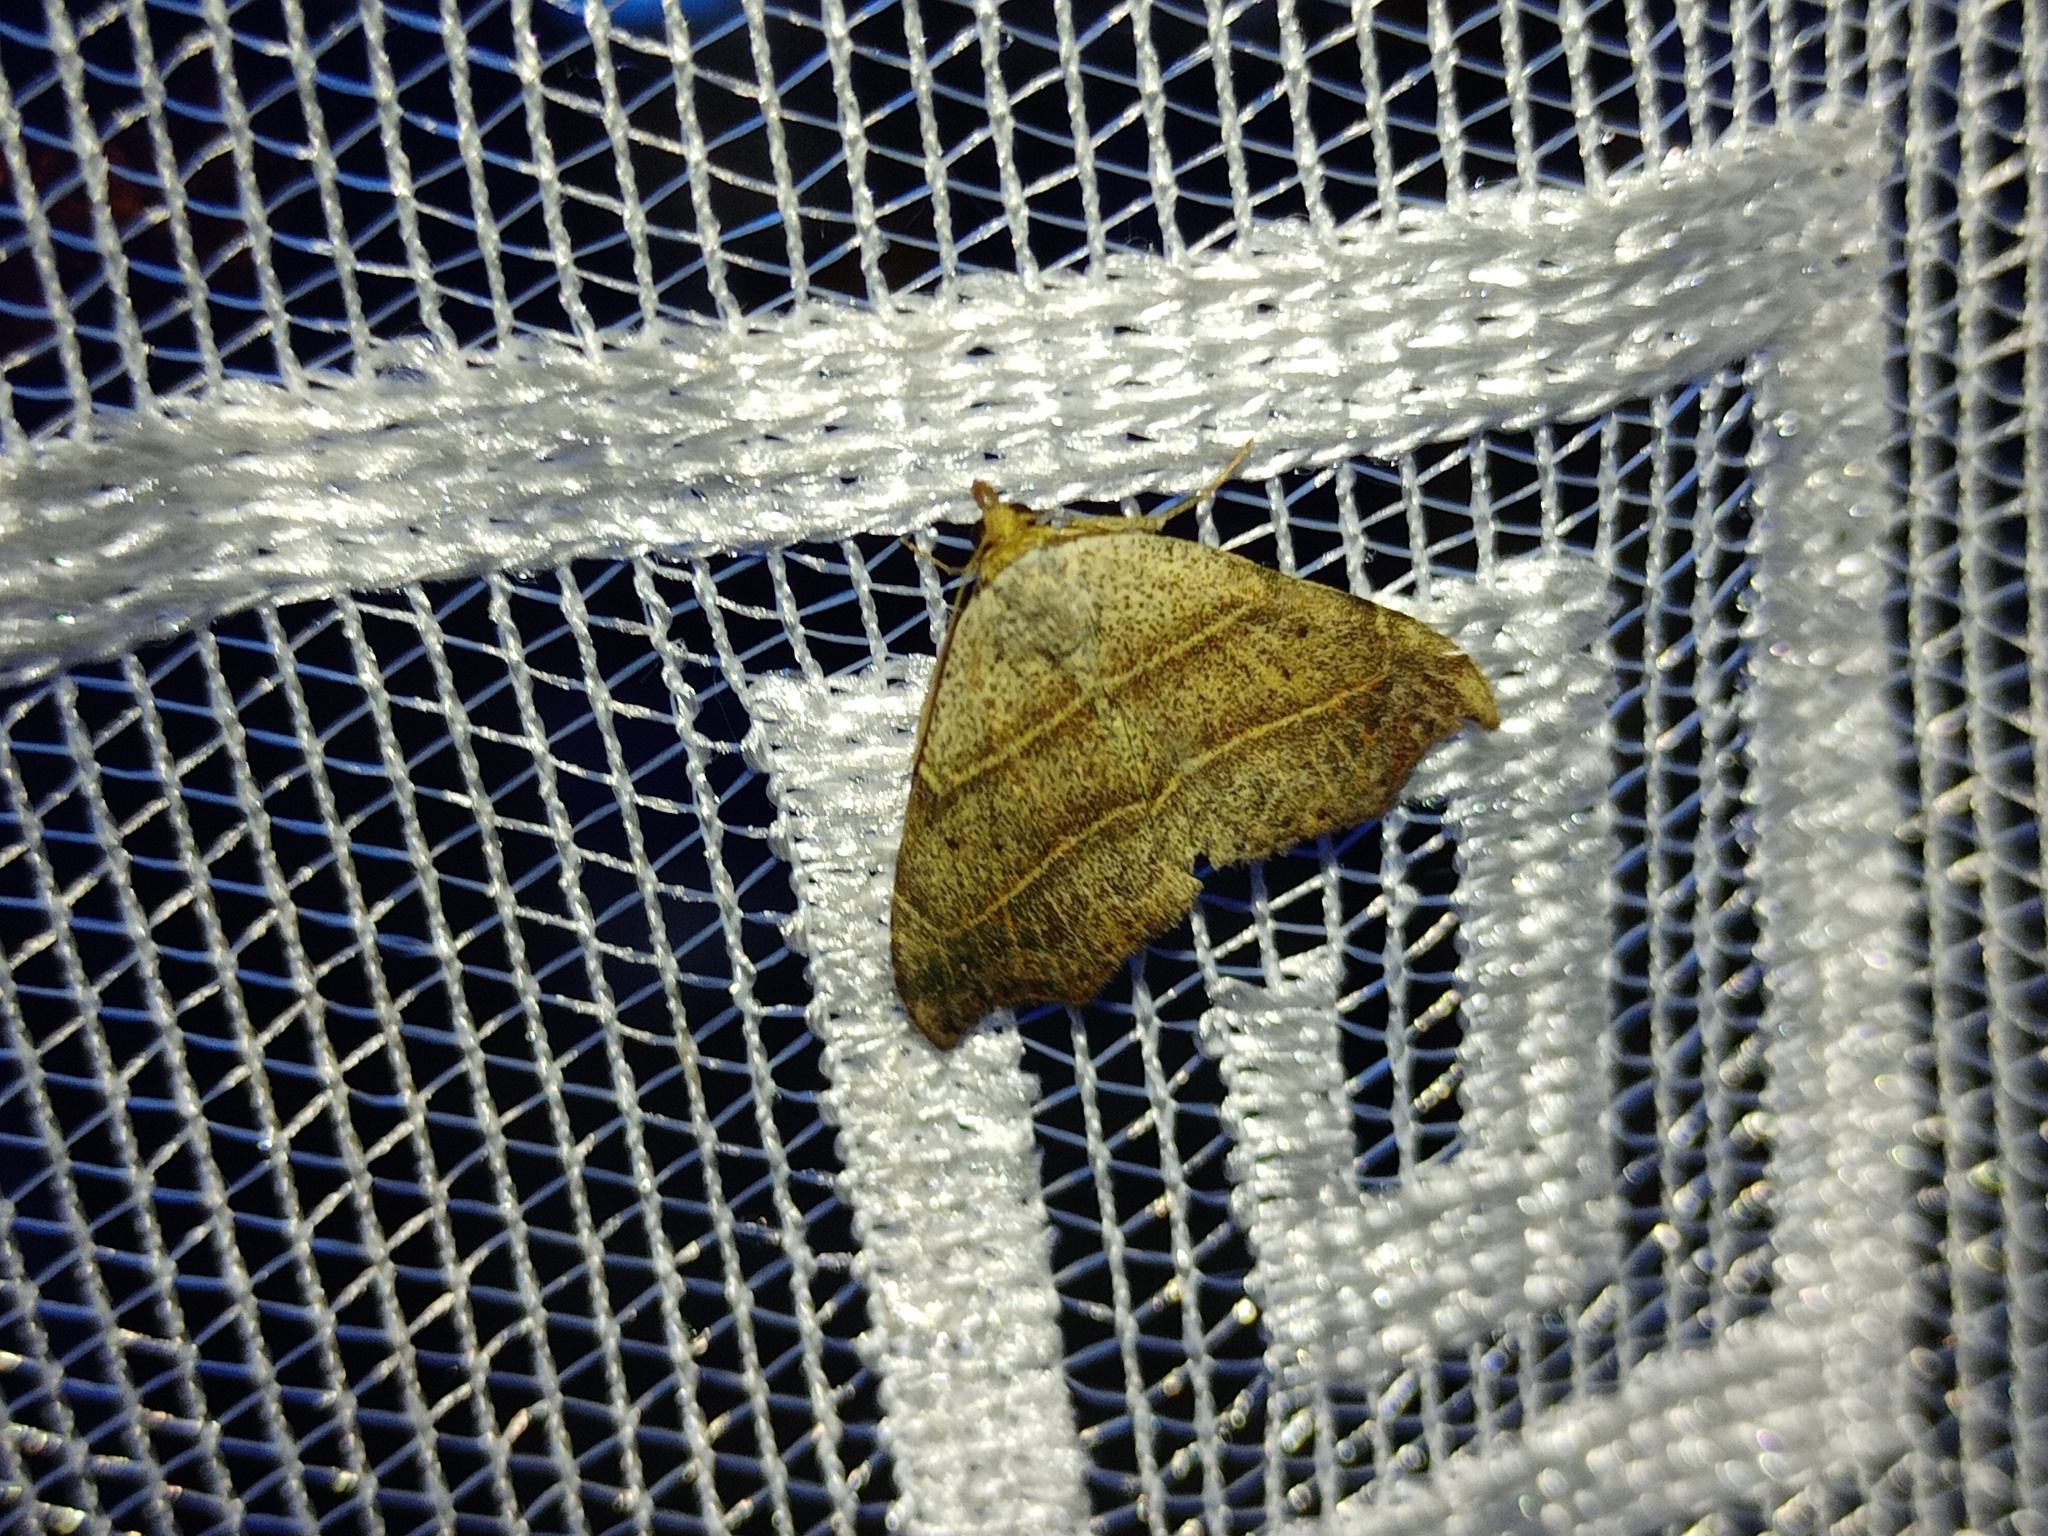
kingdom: Animalia
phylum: Arthropoda
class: Insecta
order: Lepidoptera
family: Erebidae
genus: Laspeyria
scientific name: Laspeyria flexula
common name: Beautiful hook-tip
